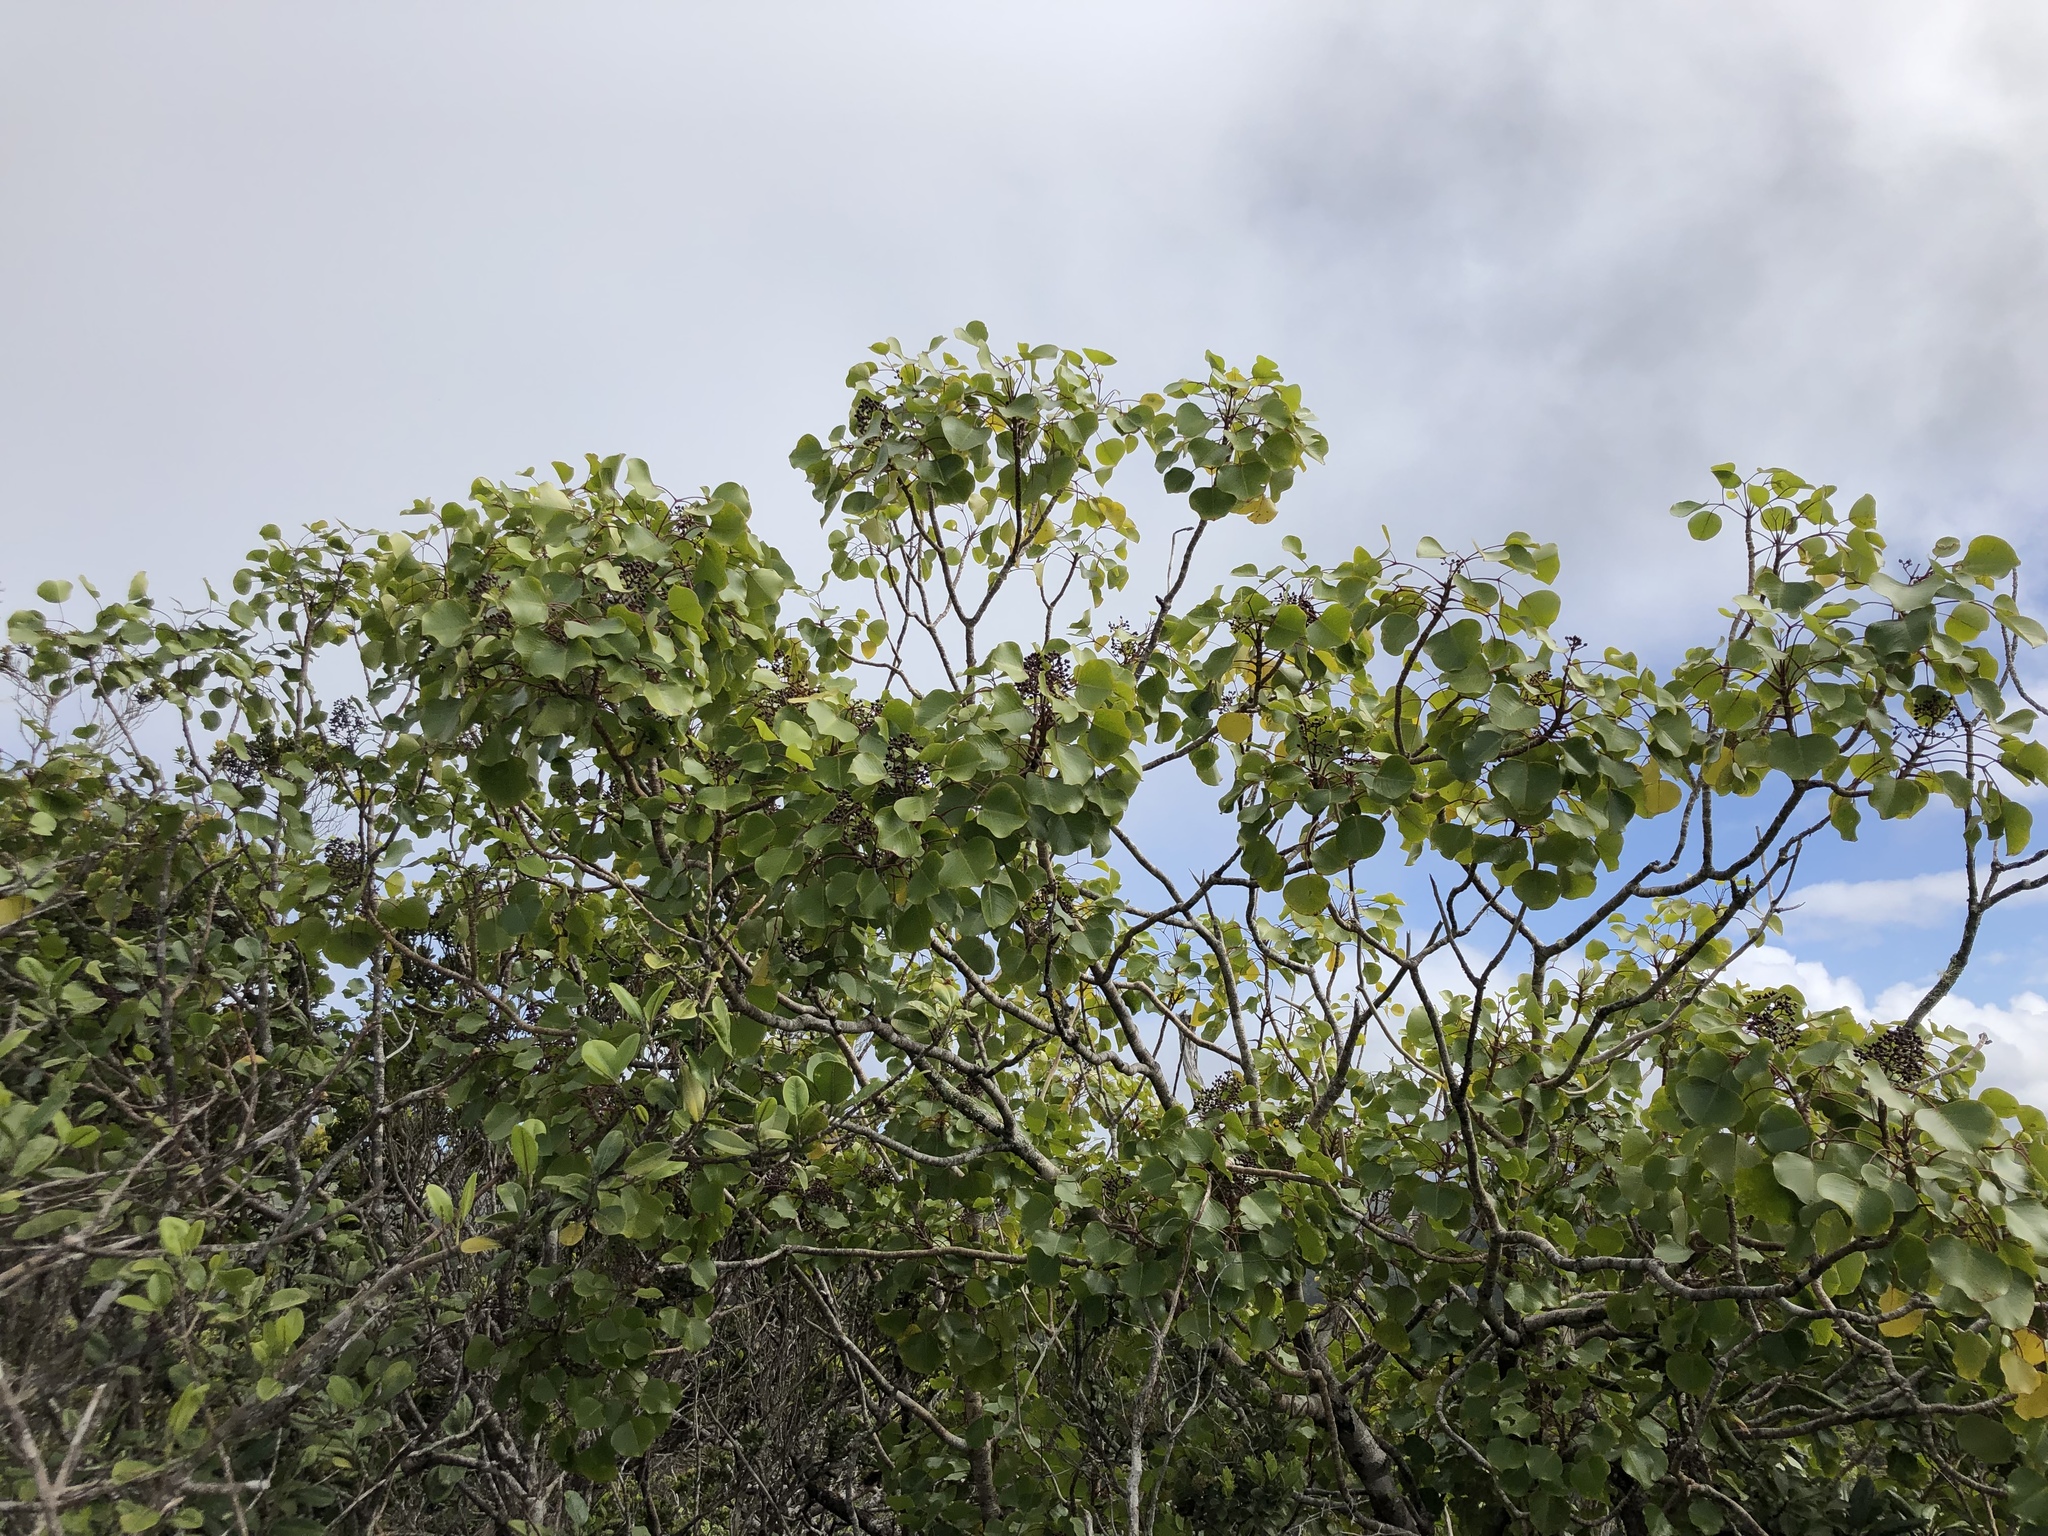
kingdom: Plantae
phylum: Tracheophyta
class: Magnoliopsida
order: Apiales
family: Araliaceae
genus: Cheirodendron
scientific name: Cheirodendron platyphyllum
